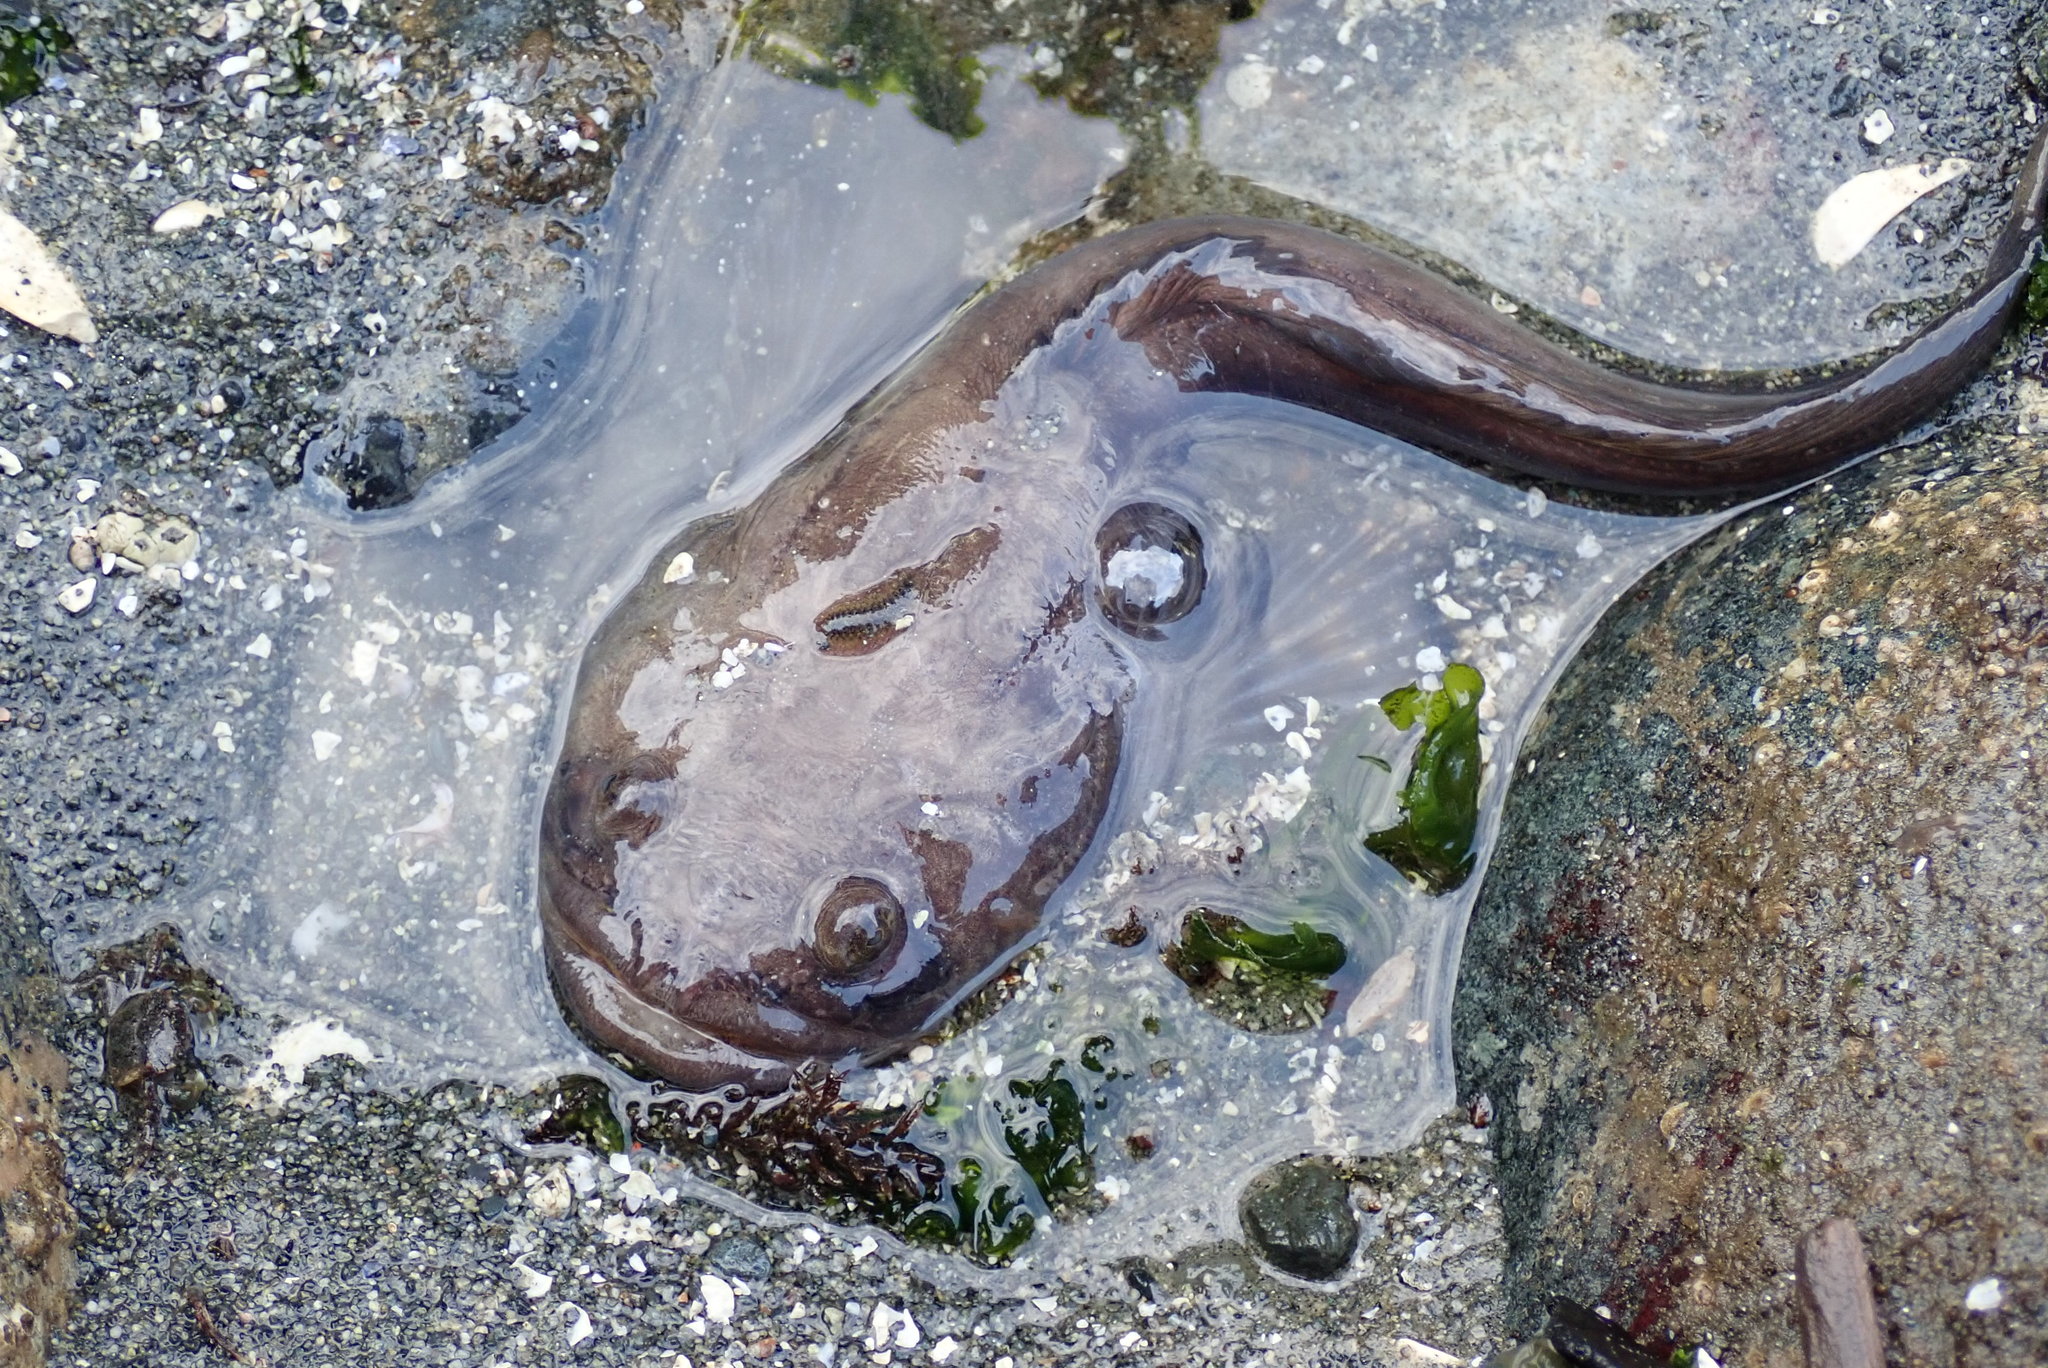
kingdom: Animalia
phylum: Chordata
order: Batrachoidiformes
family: Batrachoididae
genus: Porichthys
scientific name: Porichthys notatus
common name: Plainfin midshipman
